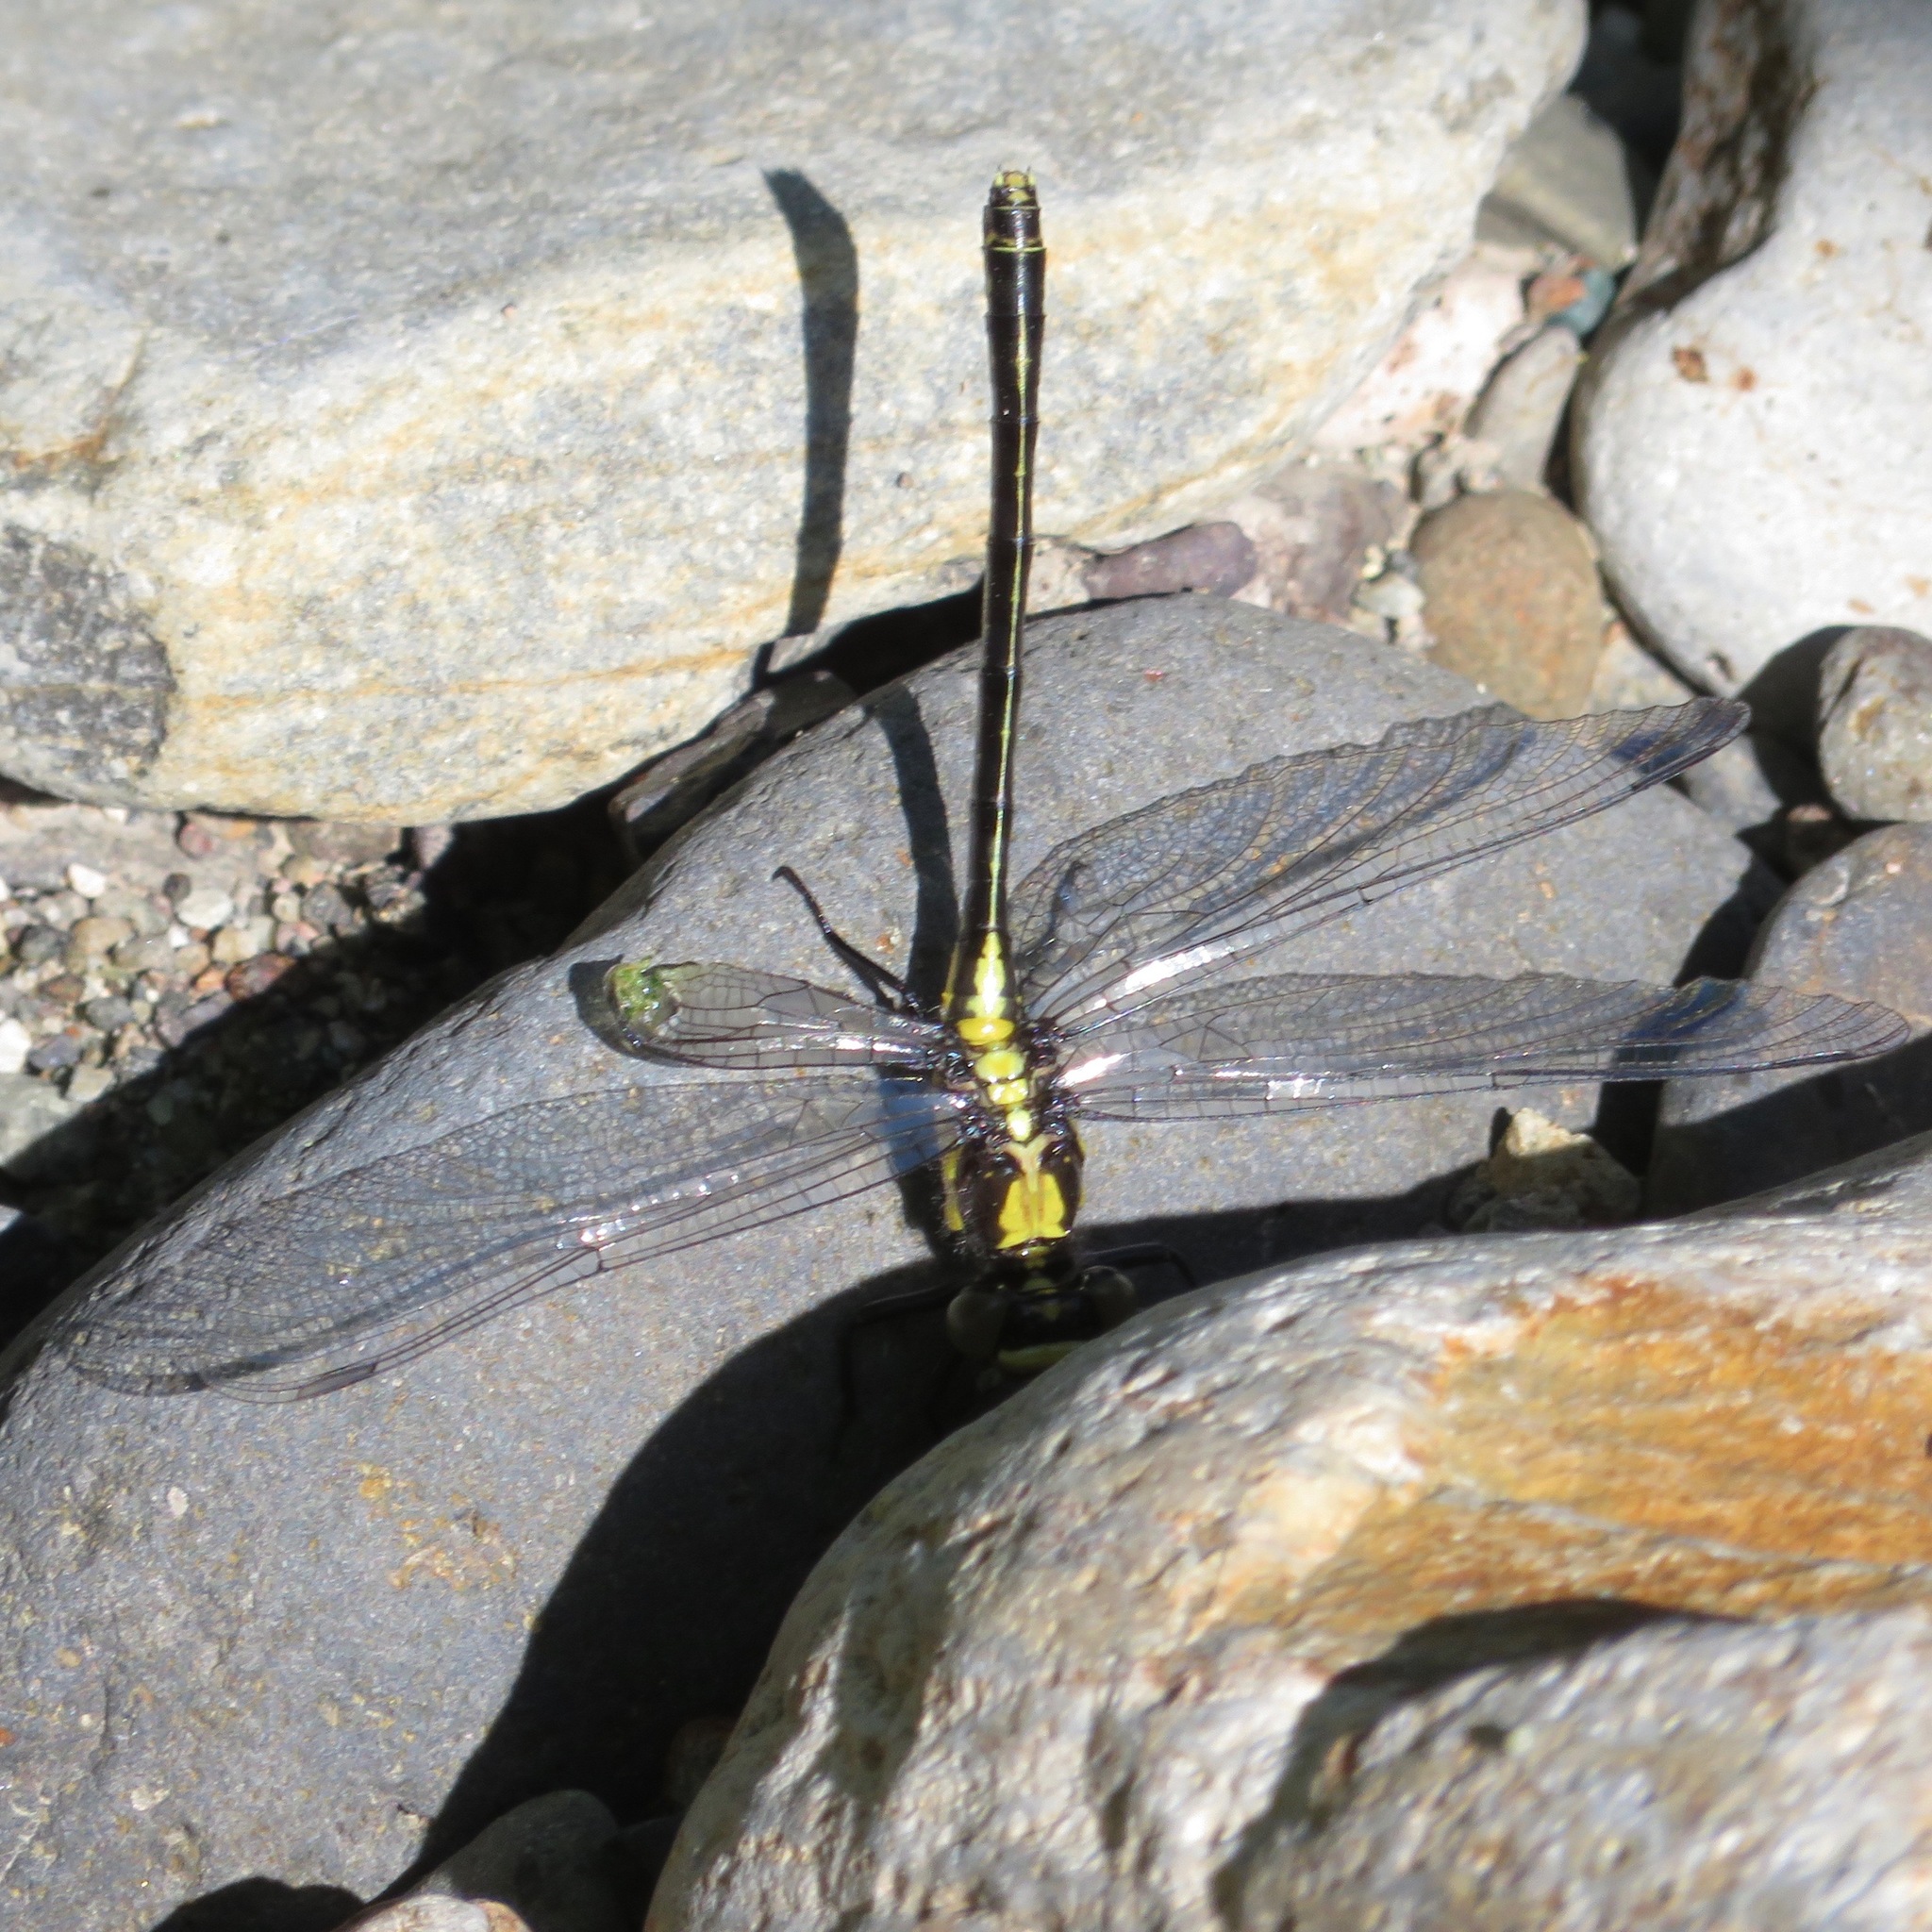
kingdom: Animalia
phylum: Arthropoda
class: Insecta
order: Odonata
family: Gomphidae
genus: Octogomphus
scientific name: Octogomphus specularis
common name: Grappletail
